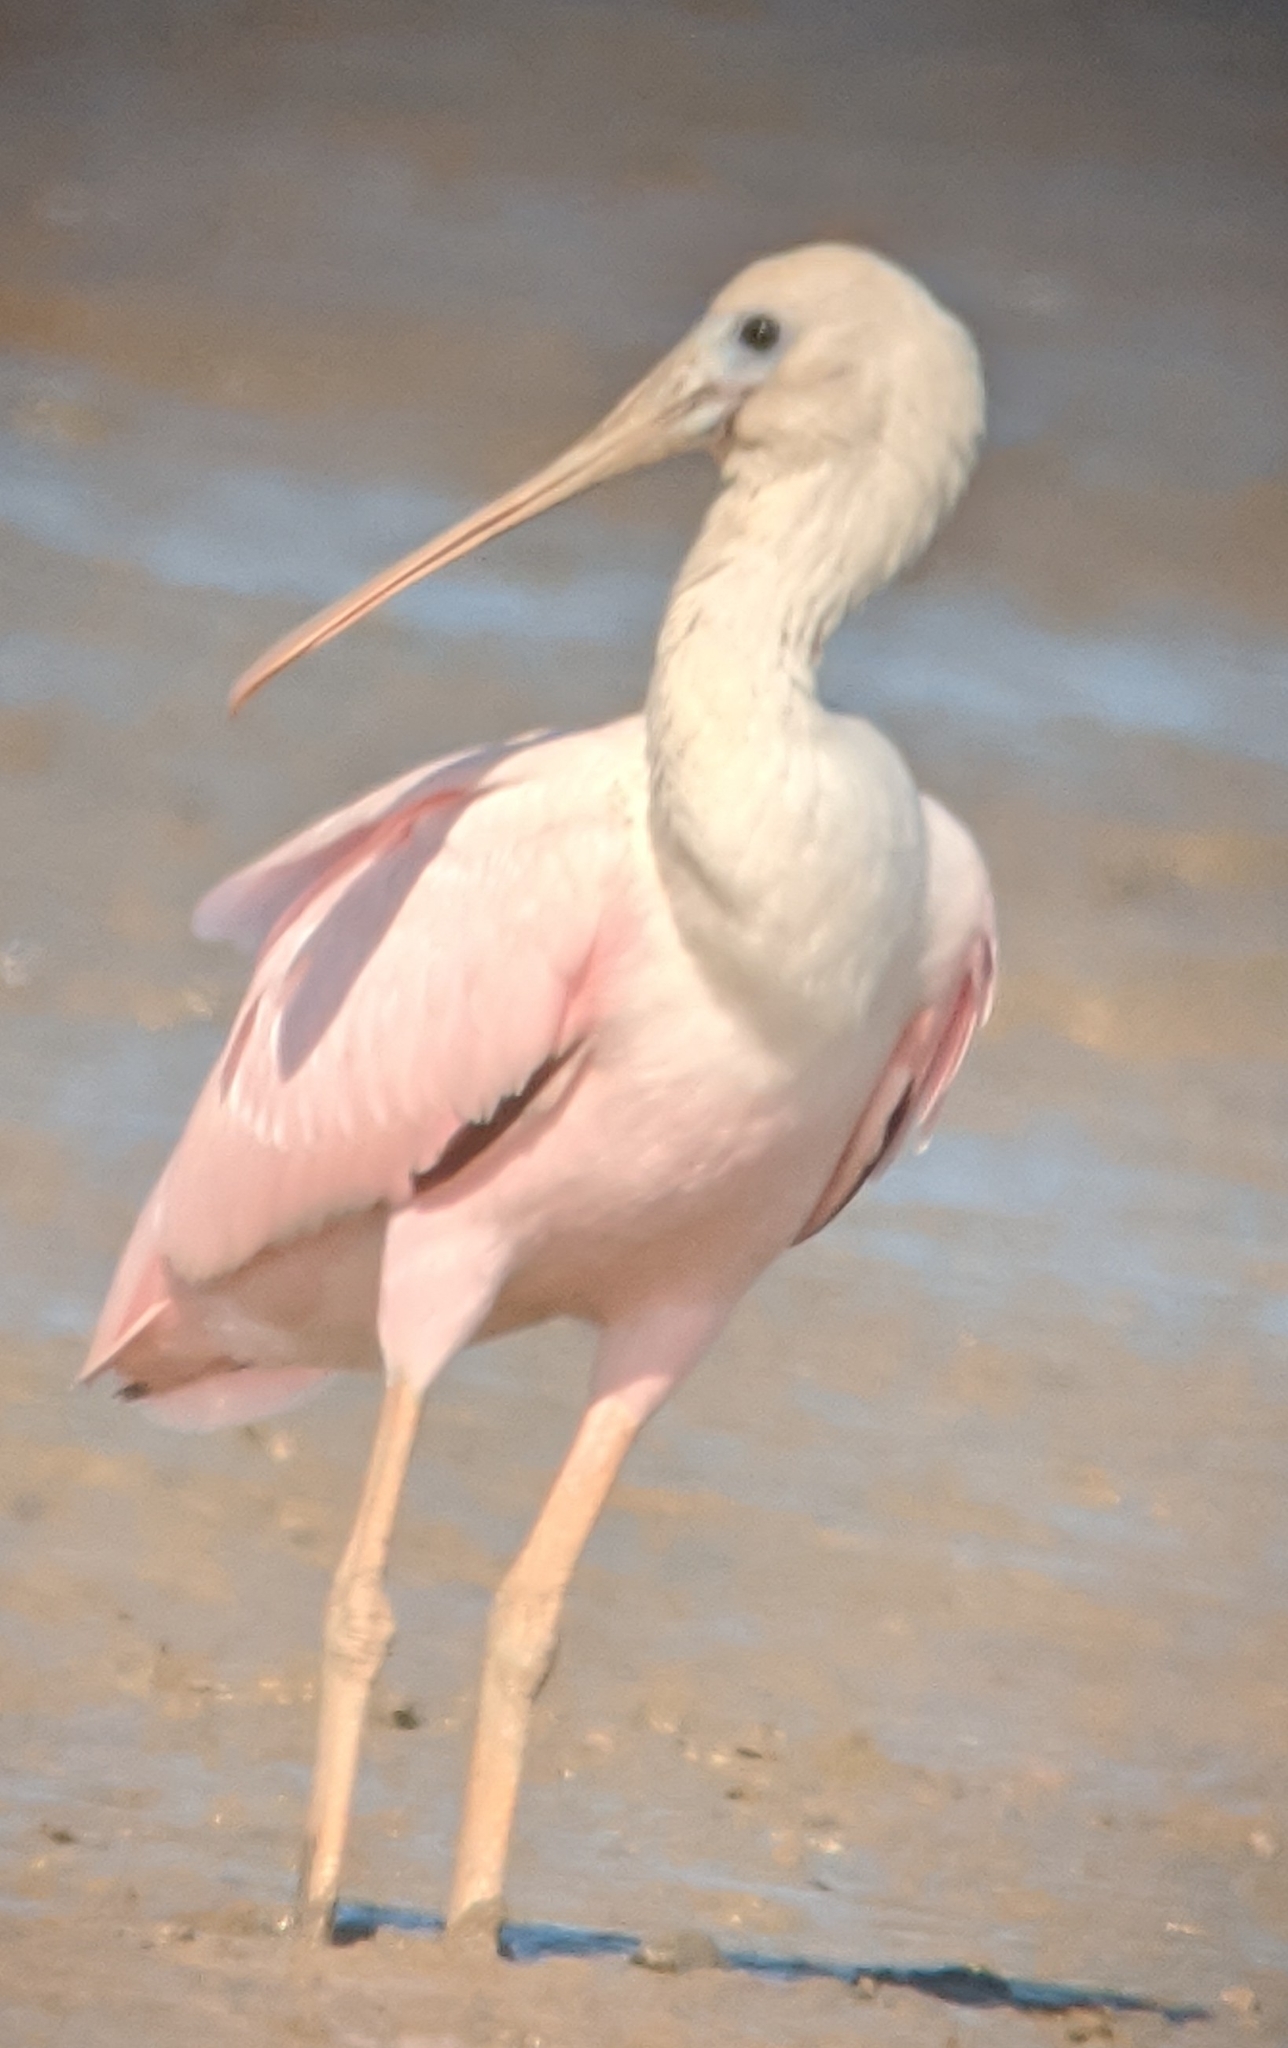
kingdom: Animalia
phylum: Chordata
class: Aves
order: Pelecaniformes
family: Threskiornithidae
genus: Platalea
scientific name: Platalea ajaja
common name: Roseate spoonbill
